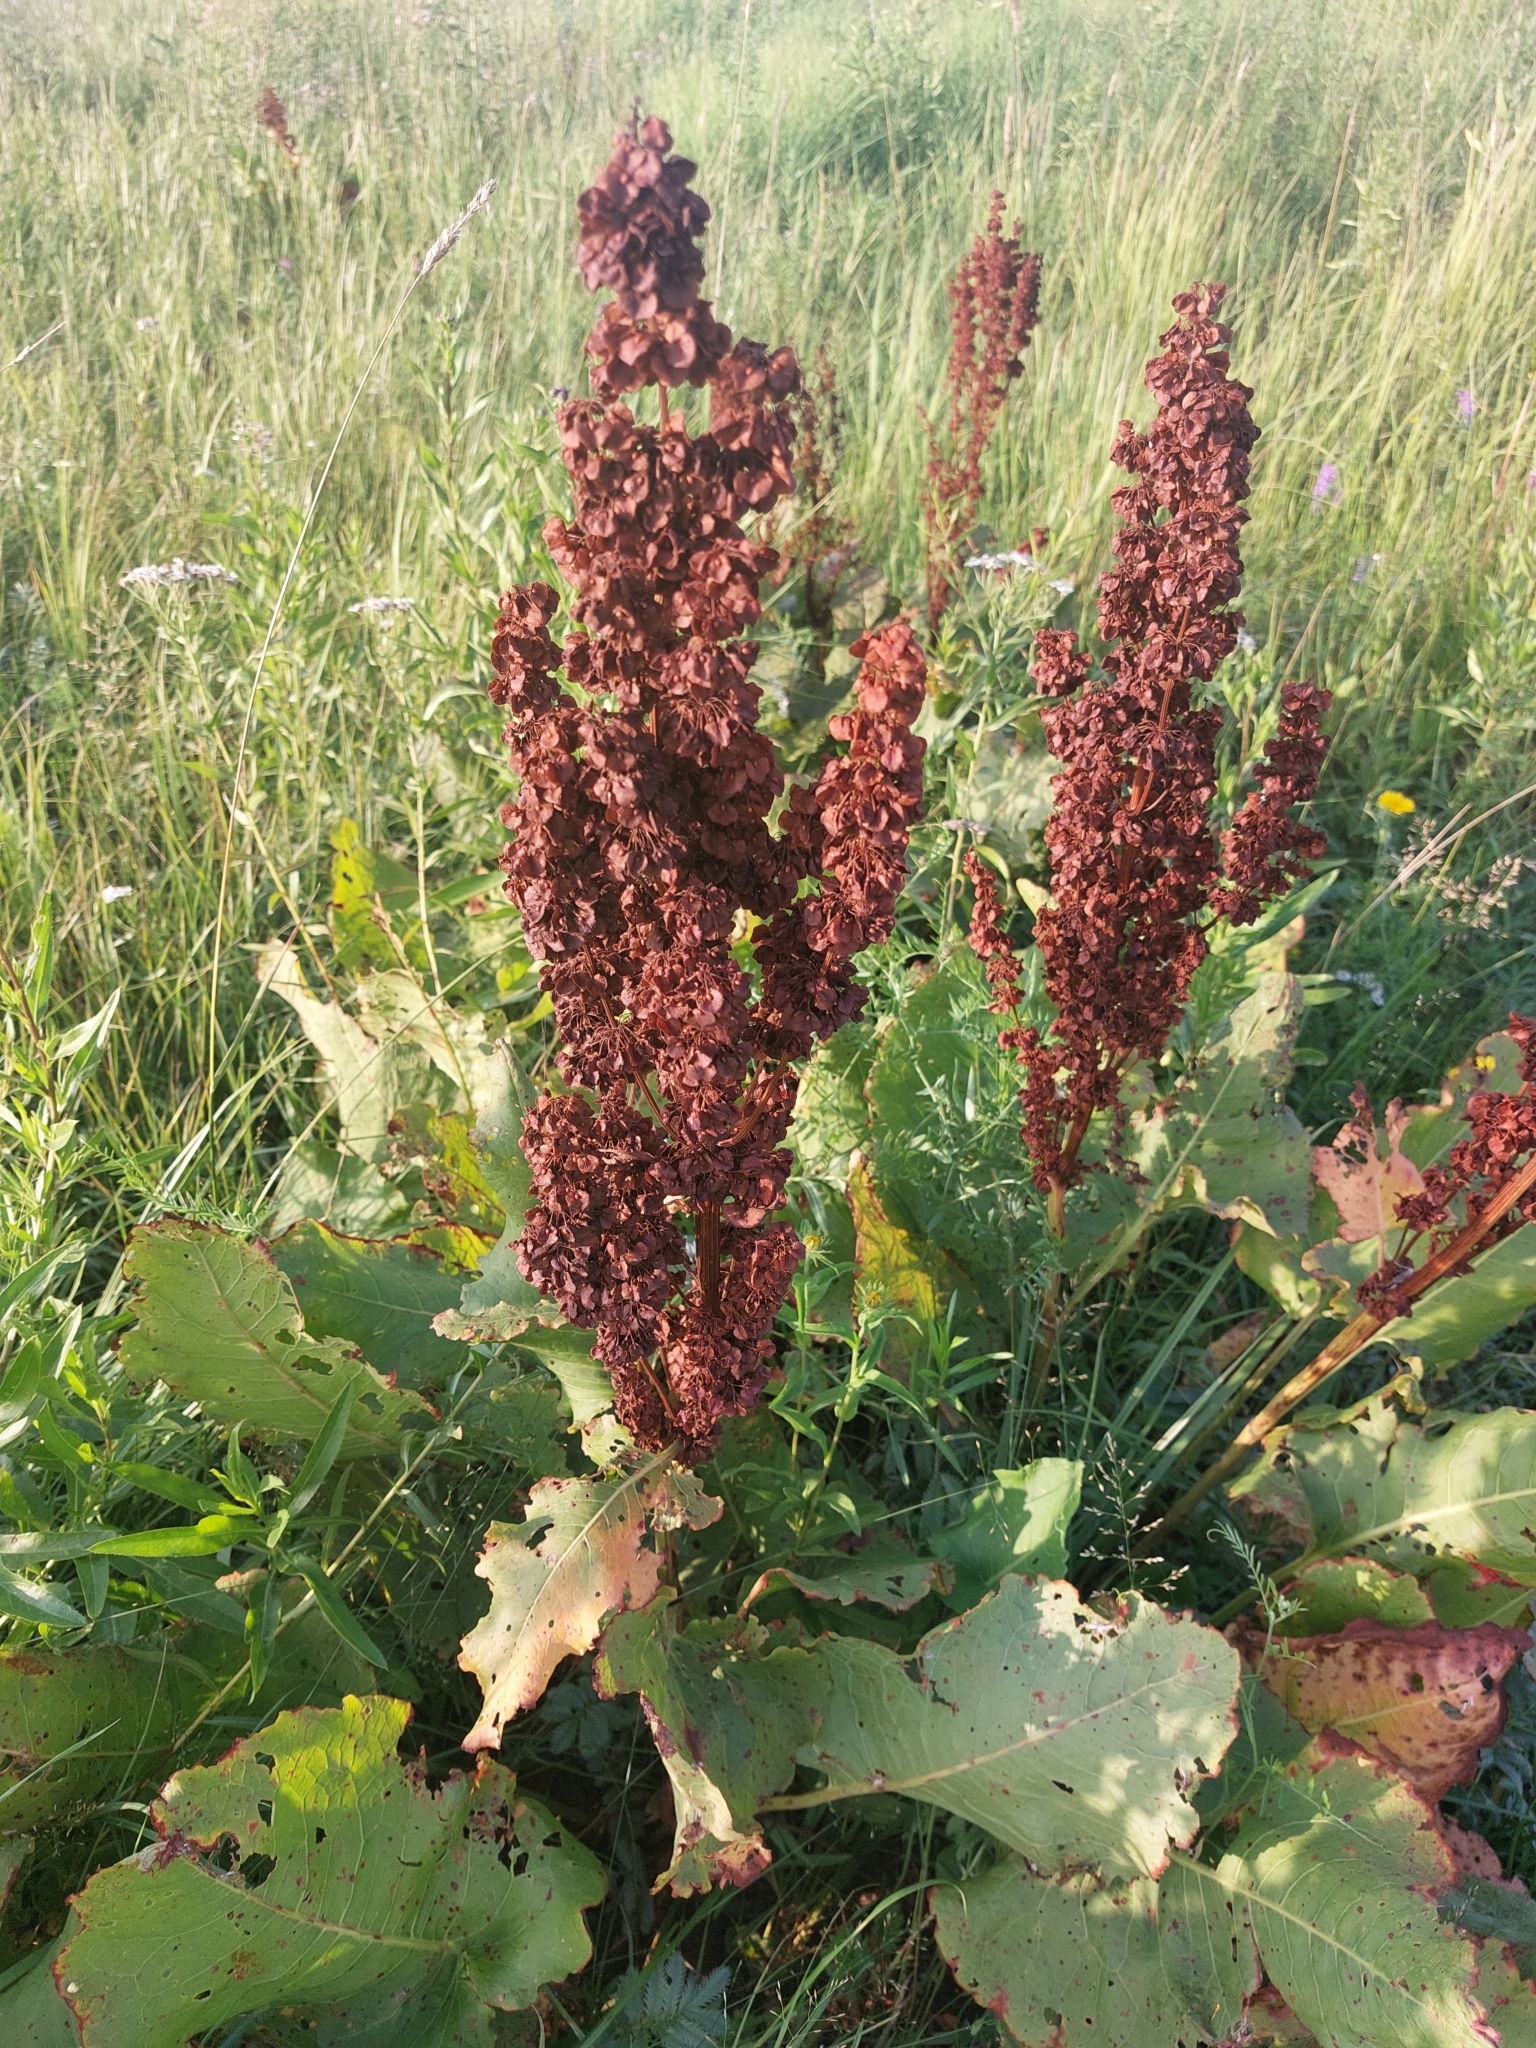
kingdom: Plantae
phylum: Tracheophyta
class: Magnoliopsida
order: Caryophyllales
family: Polygonaceae
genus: Rumex
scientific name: Rumex confertus
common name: Russian dock
